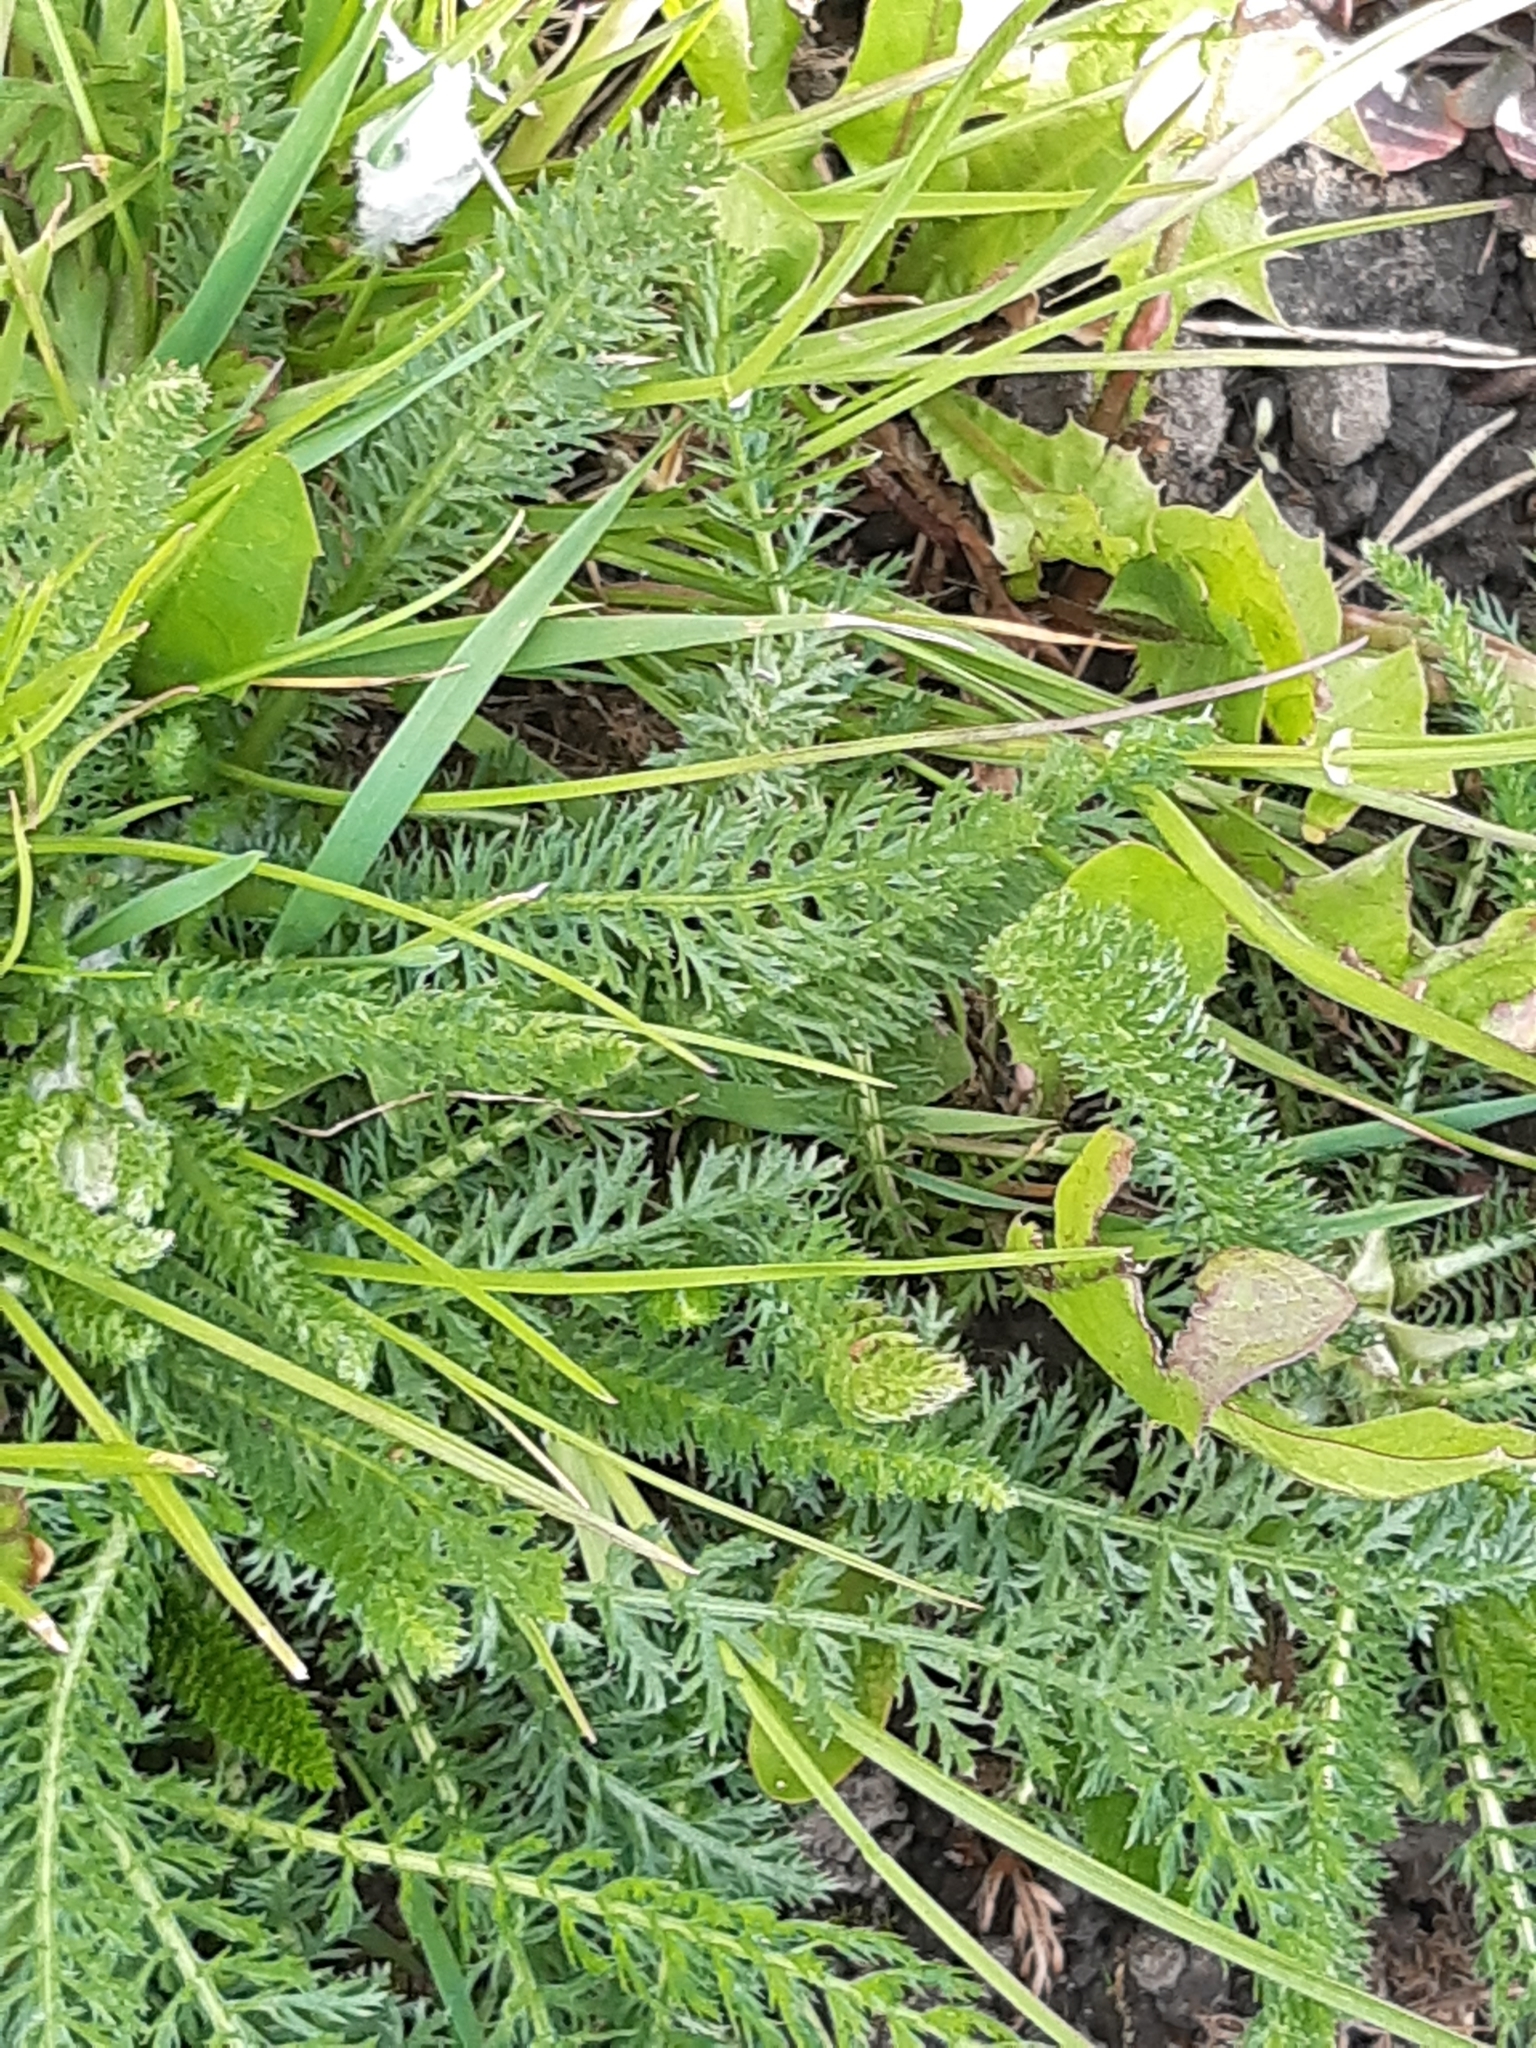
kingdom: Plantae
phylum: Tracheophyta
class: Magnoliopsida
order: Asterales
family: Asteraceae
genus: Achillea
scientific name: Achillea millefolium
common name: Yarrow
